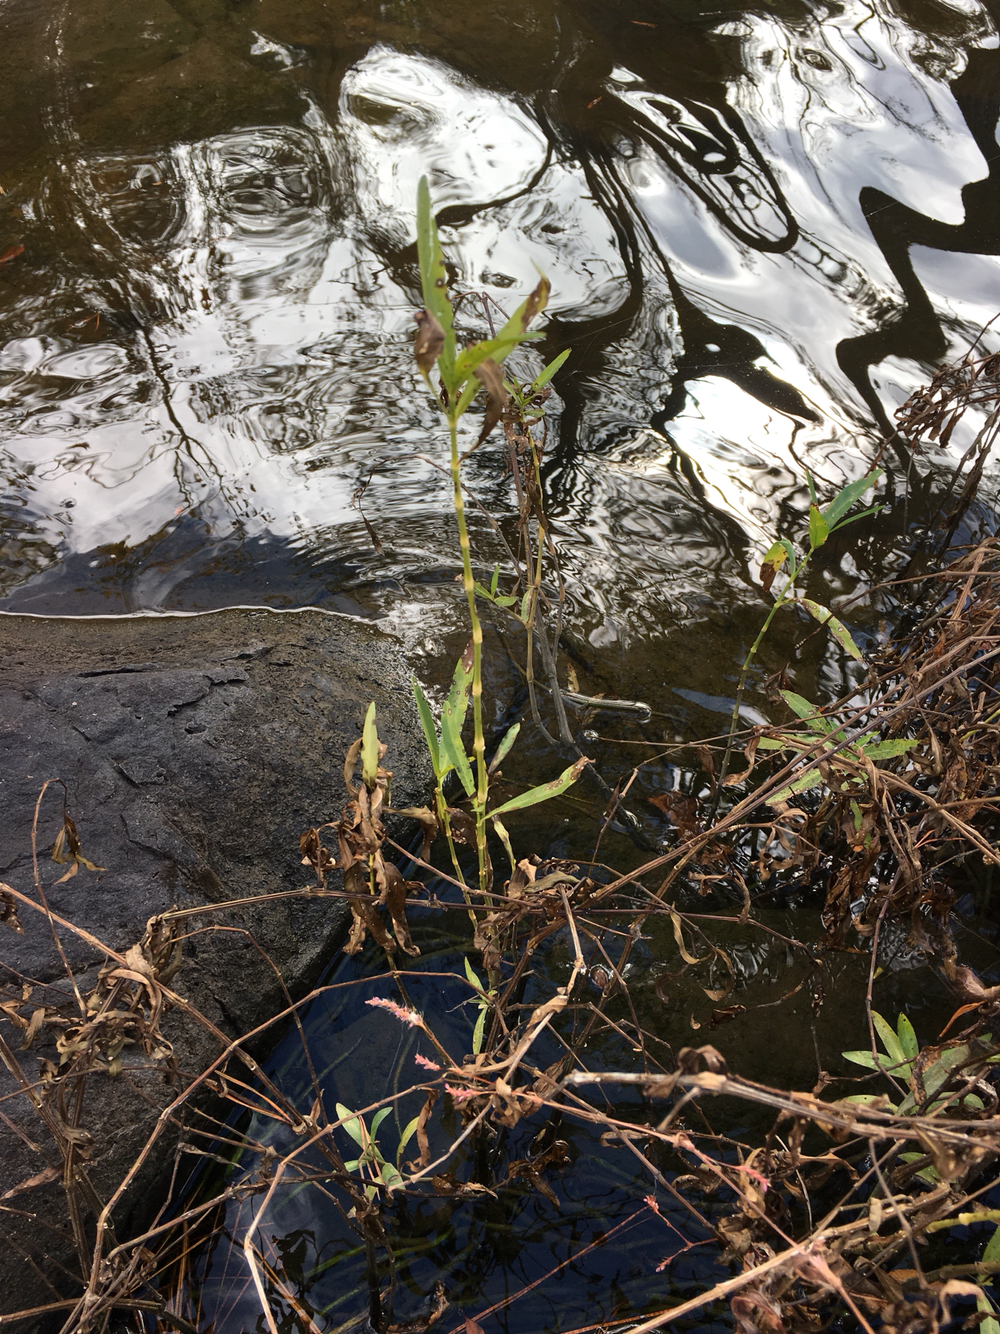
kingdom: Plantae
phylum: Tracheophyta
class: Magnoliopsida
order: Lamiales
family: Acanthaceae
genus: Dianthera
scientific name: Dianthera americana
